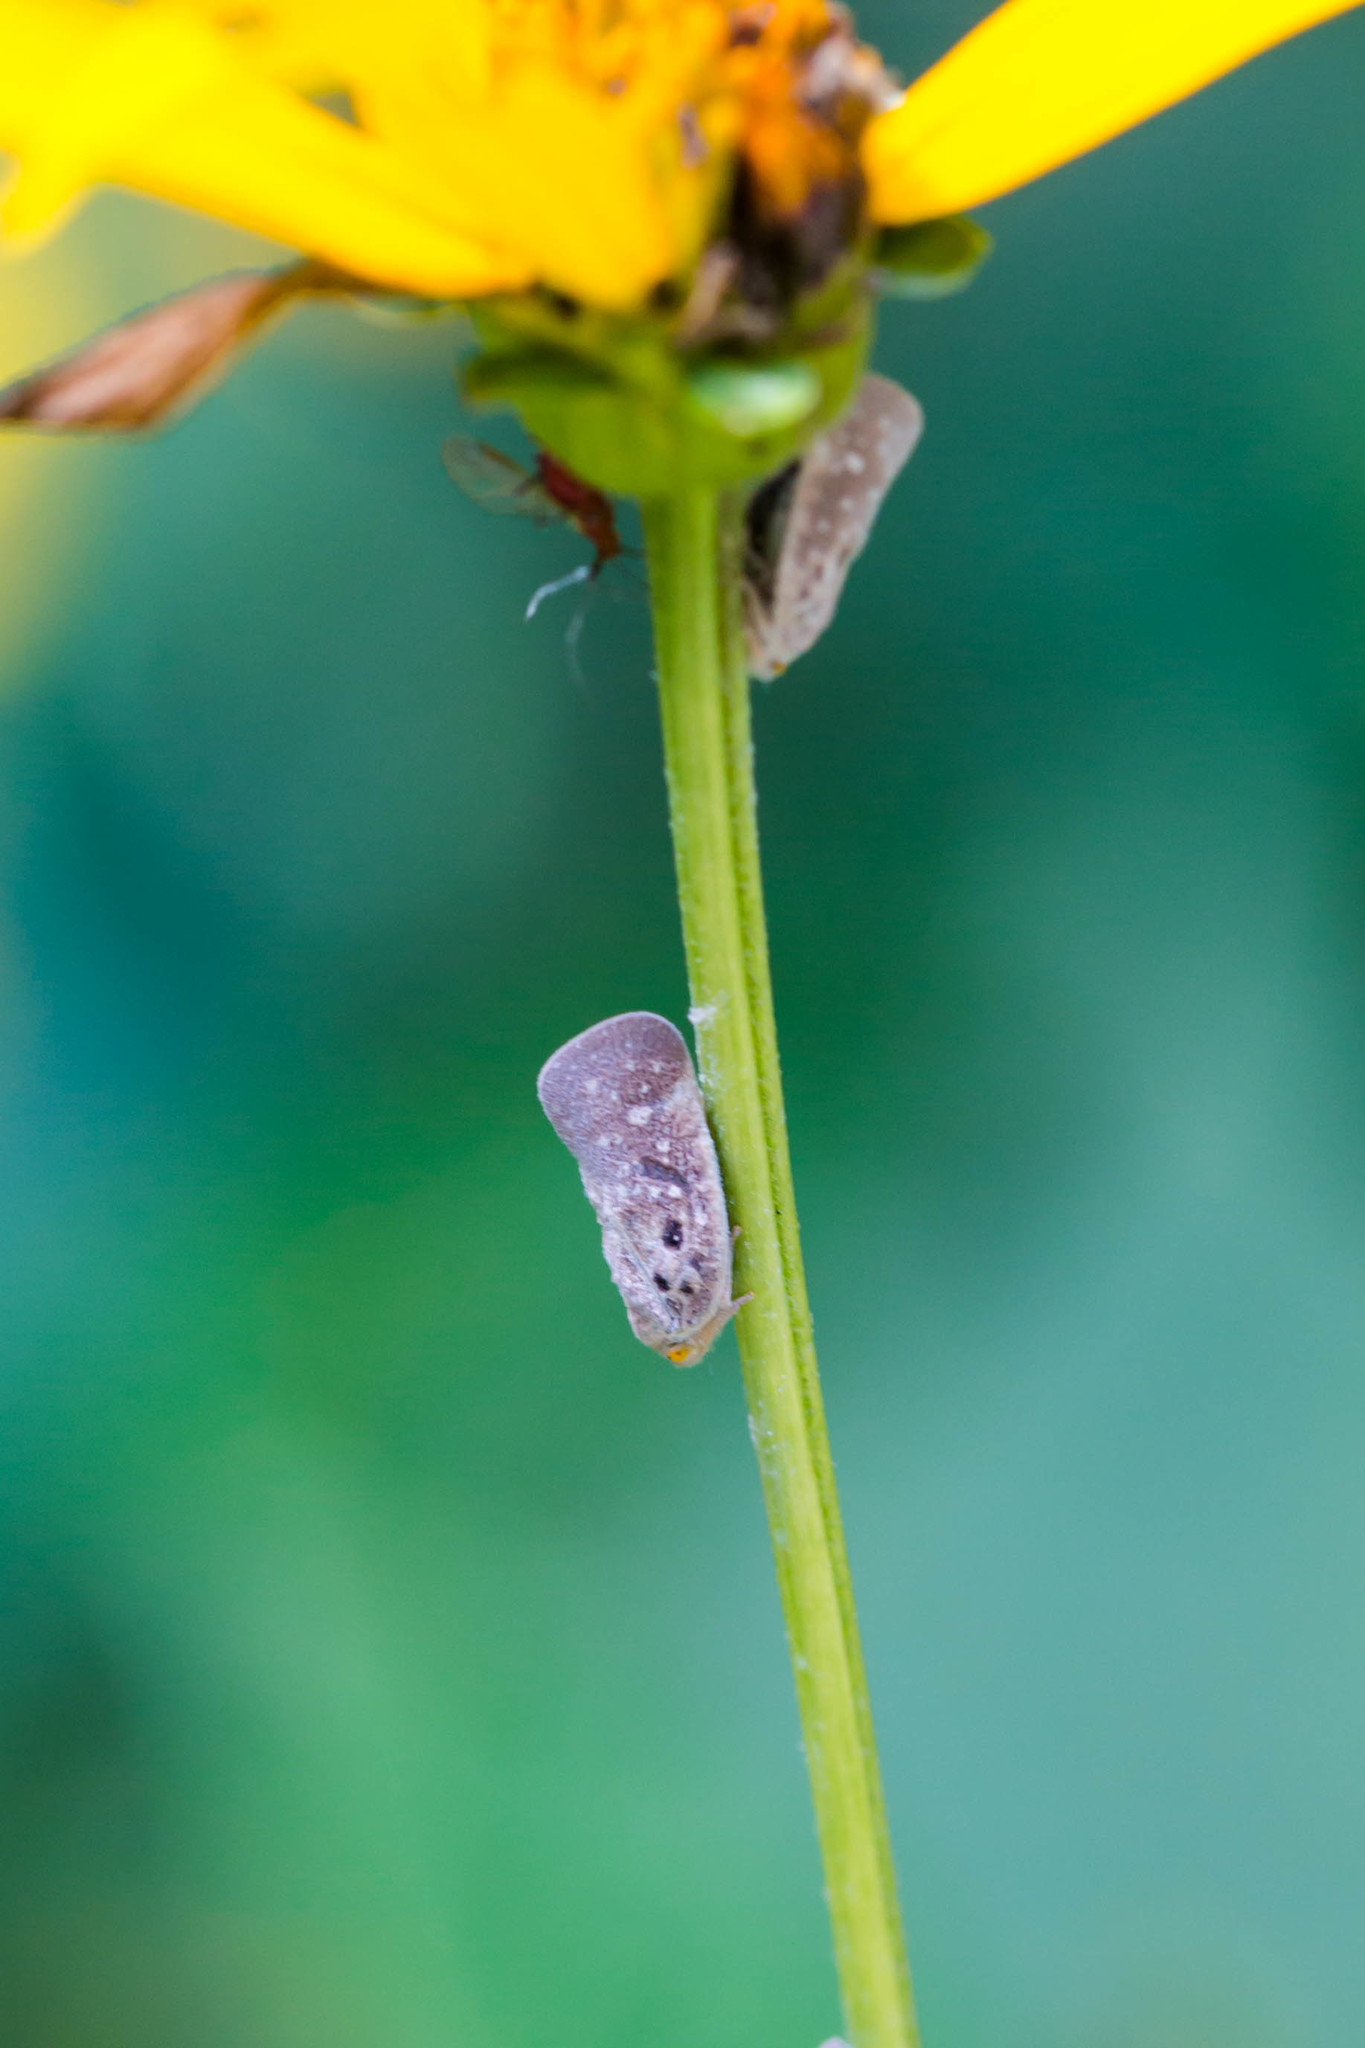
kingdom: Animalia
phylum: Arthropoda
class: Insecta
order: Hemiptera
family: Flatidae
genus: Metcalfa
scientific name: Metcalfa pruinosa
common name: Citrus flatid planthopper
